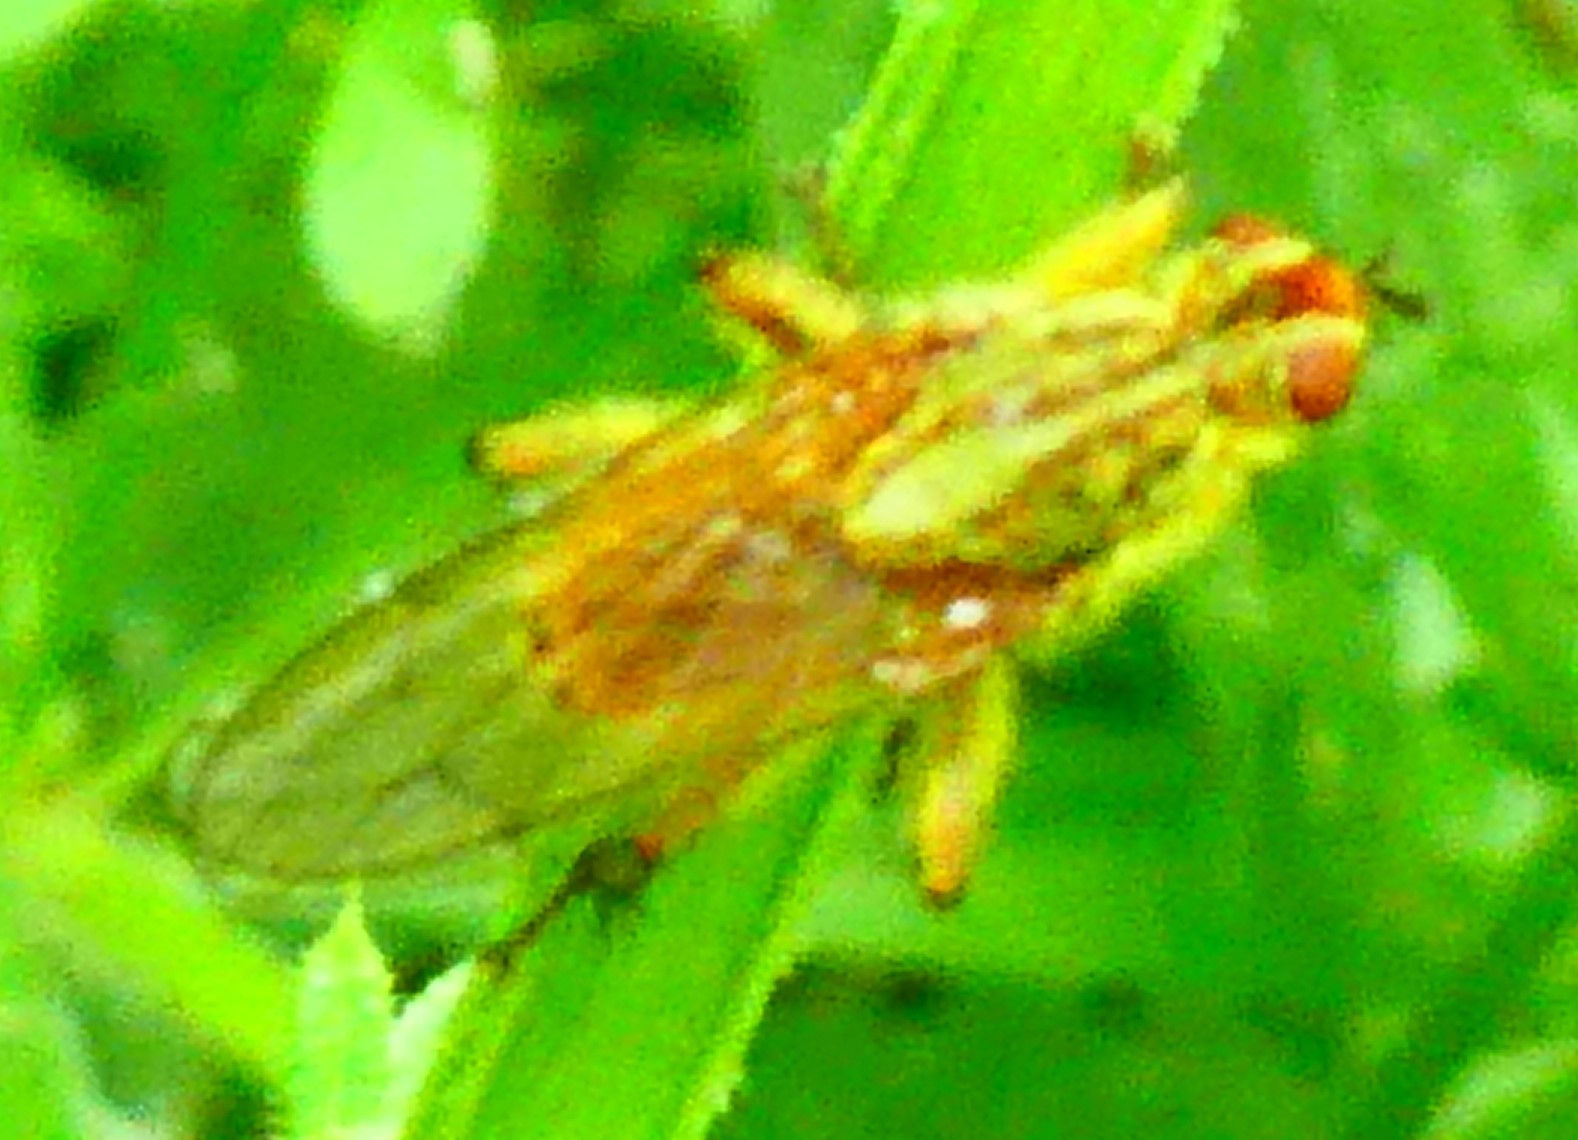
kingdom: Animalia
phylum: Arthropoda
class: Insecta
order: Diptera
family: Scathophagidae
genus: Scathophaga
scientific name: Scathophaga stercoraria
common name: Yellow dung fly
